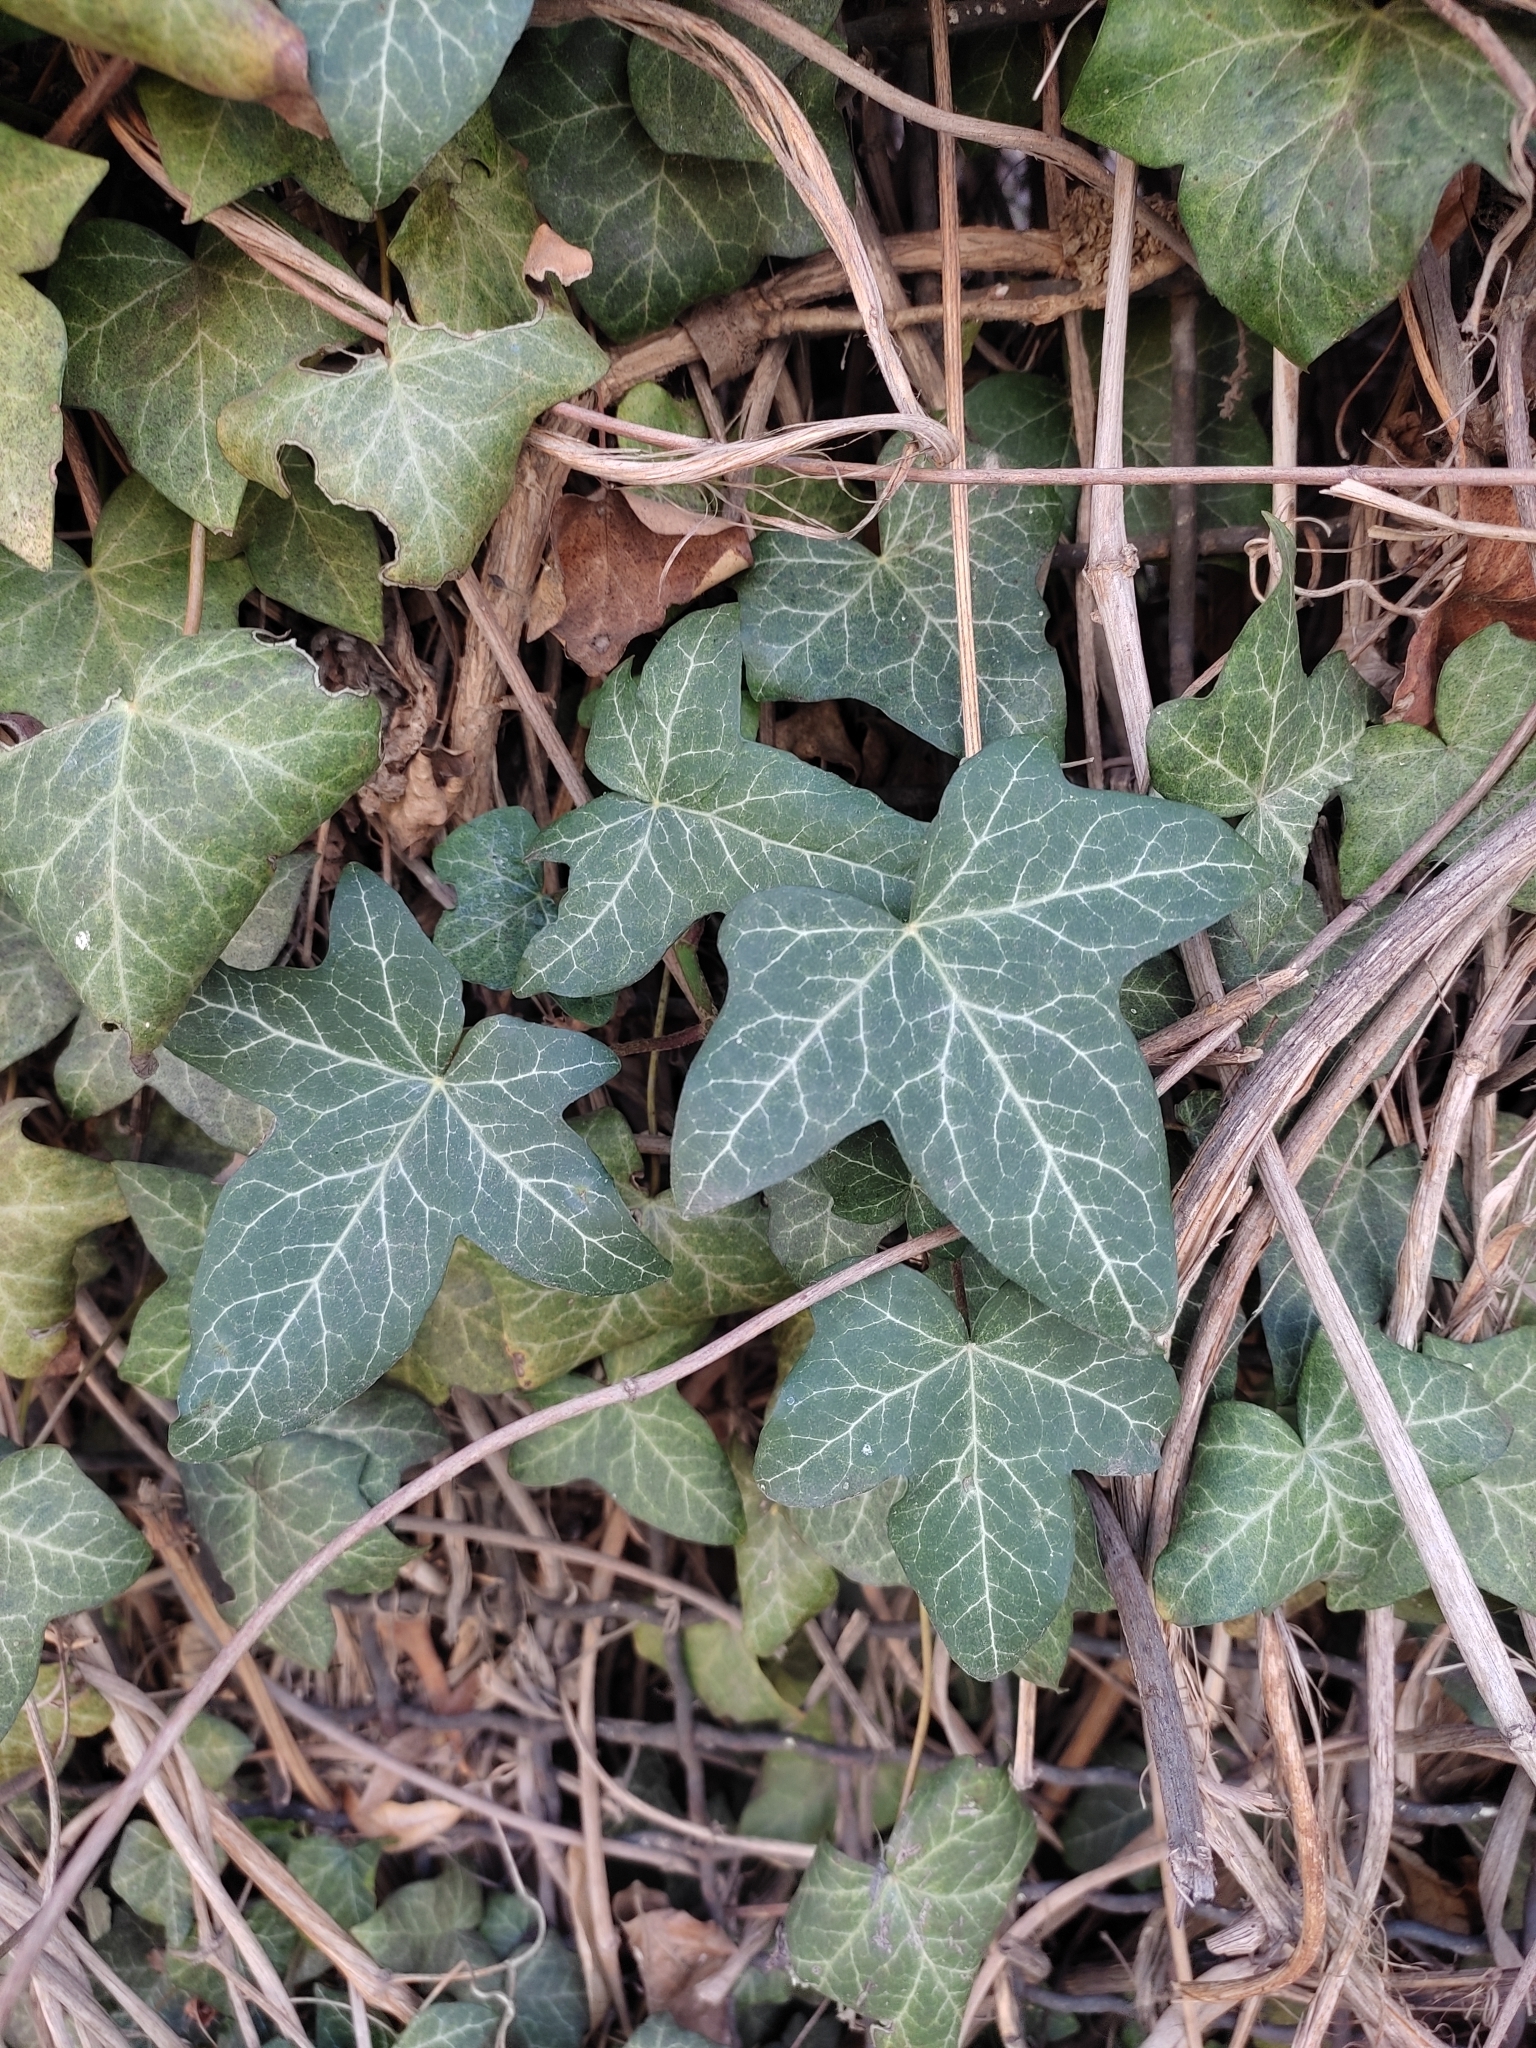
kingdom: Plantae
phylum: Tracheophyta
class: Magnoliopsida
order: Apiales
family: Araliaceae
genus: Hedera
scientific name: Hedera helix
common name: Ivy
